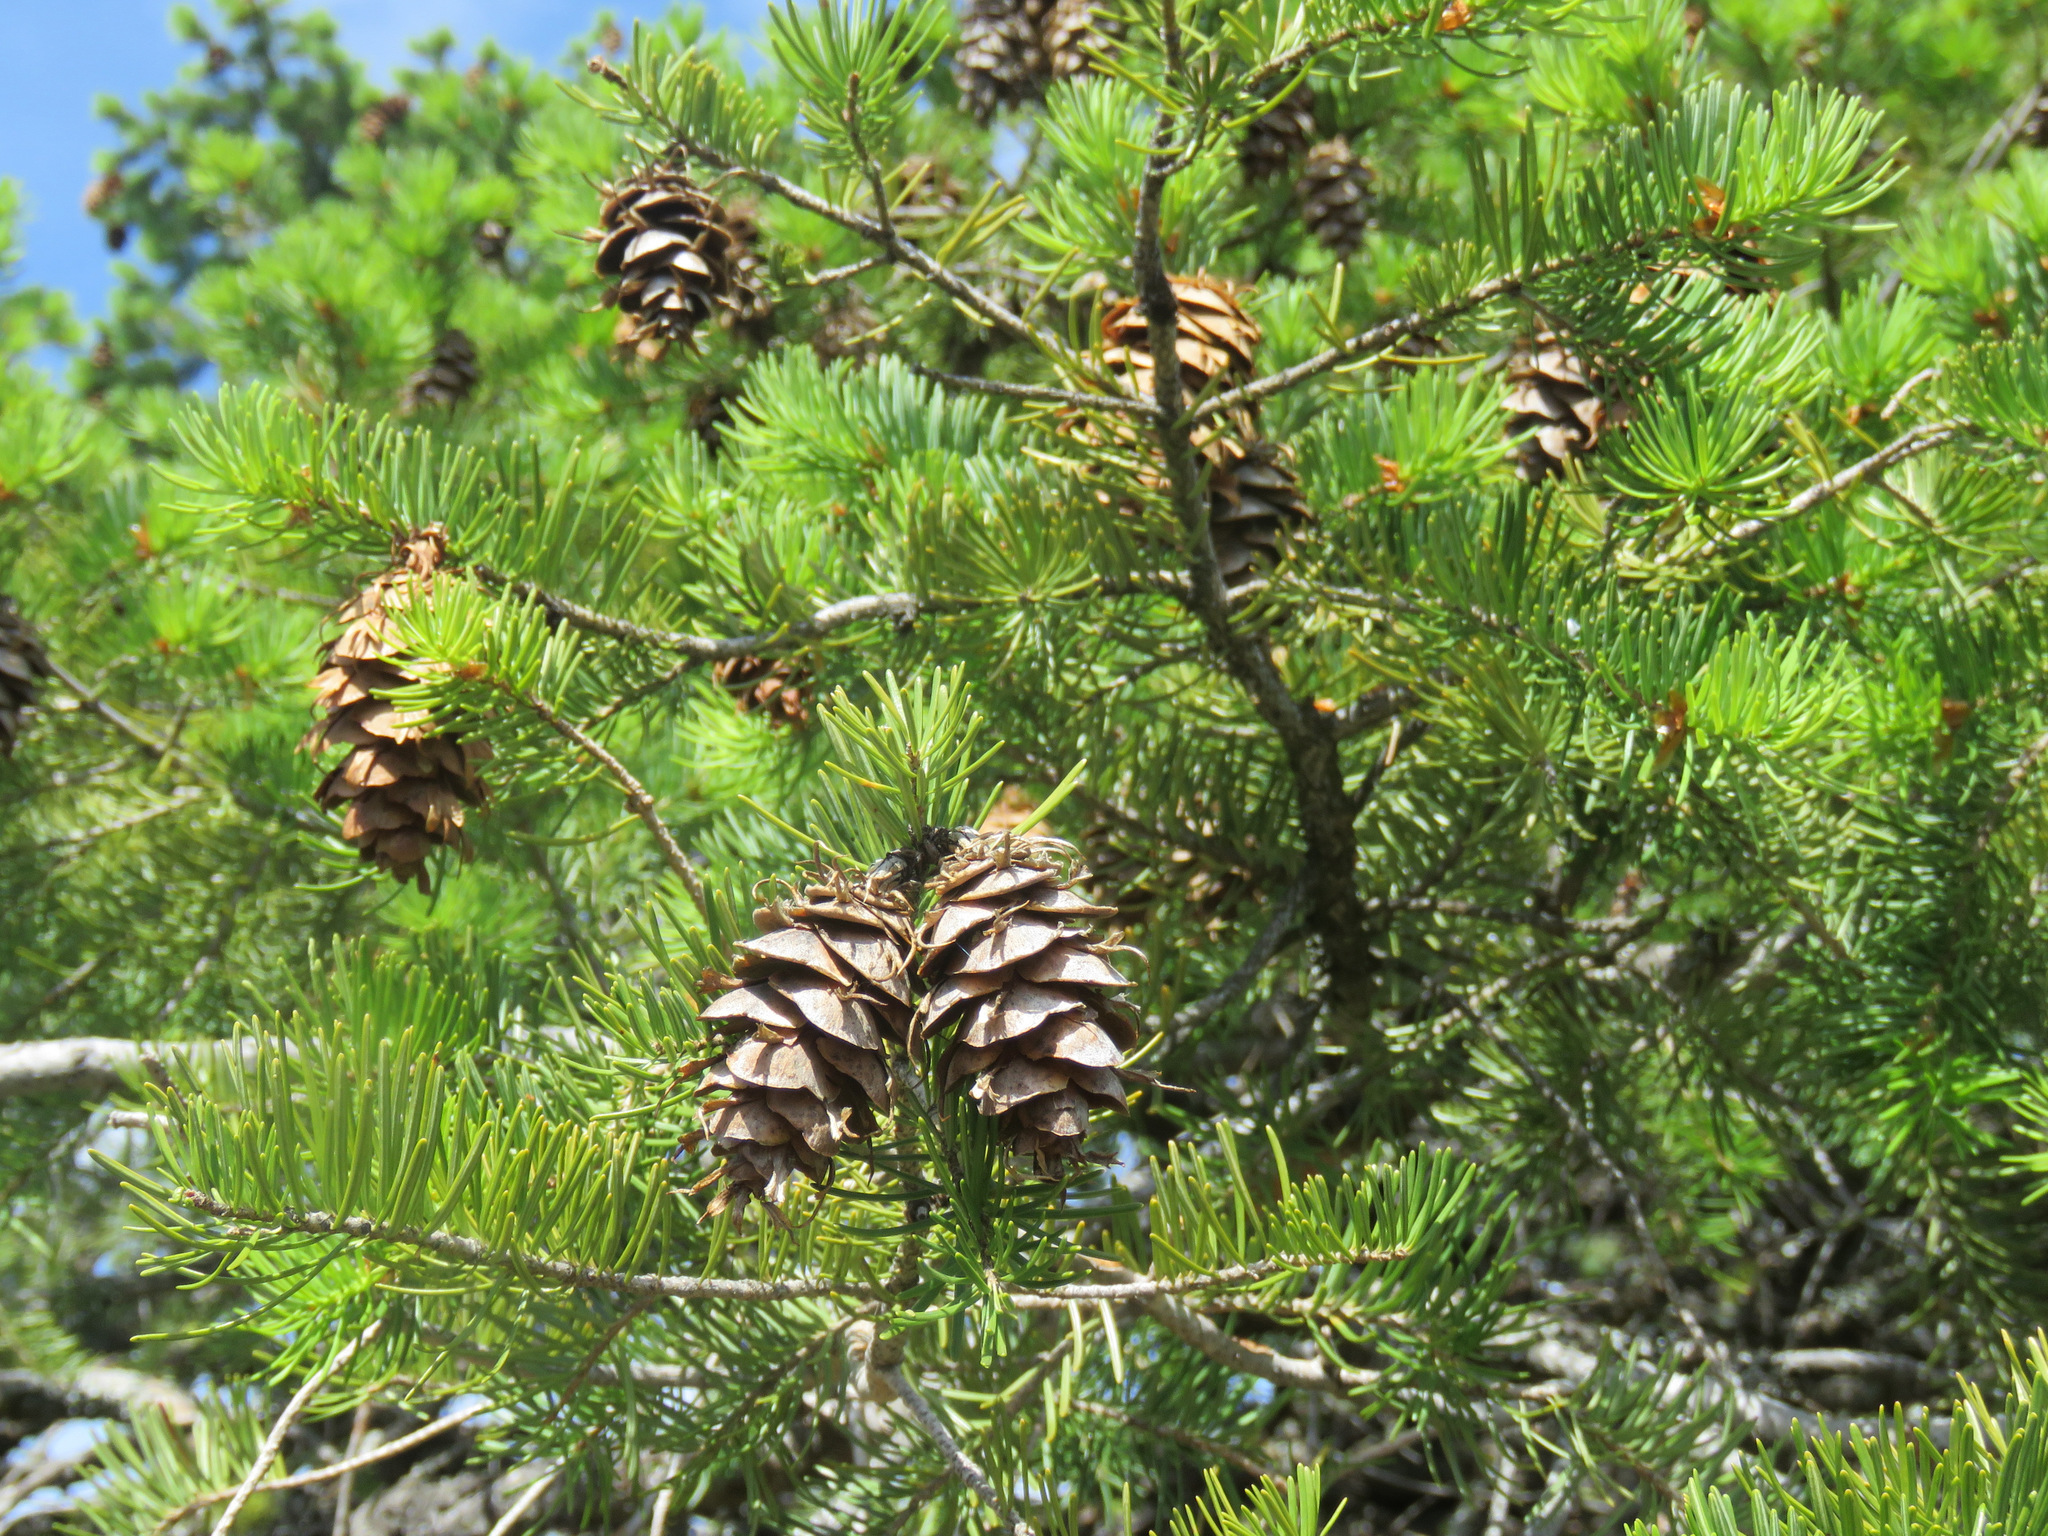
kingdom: Plantae
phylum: Tracheophyta
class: Pinopsida
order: Pinales
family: Pinaceae
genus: Pseudotsuga
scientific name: Pseudotsuga menziesii
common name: Douglas fir
